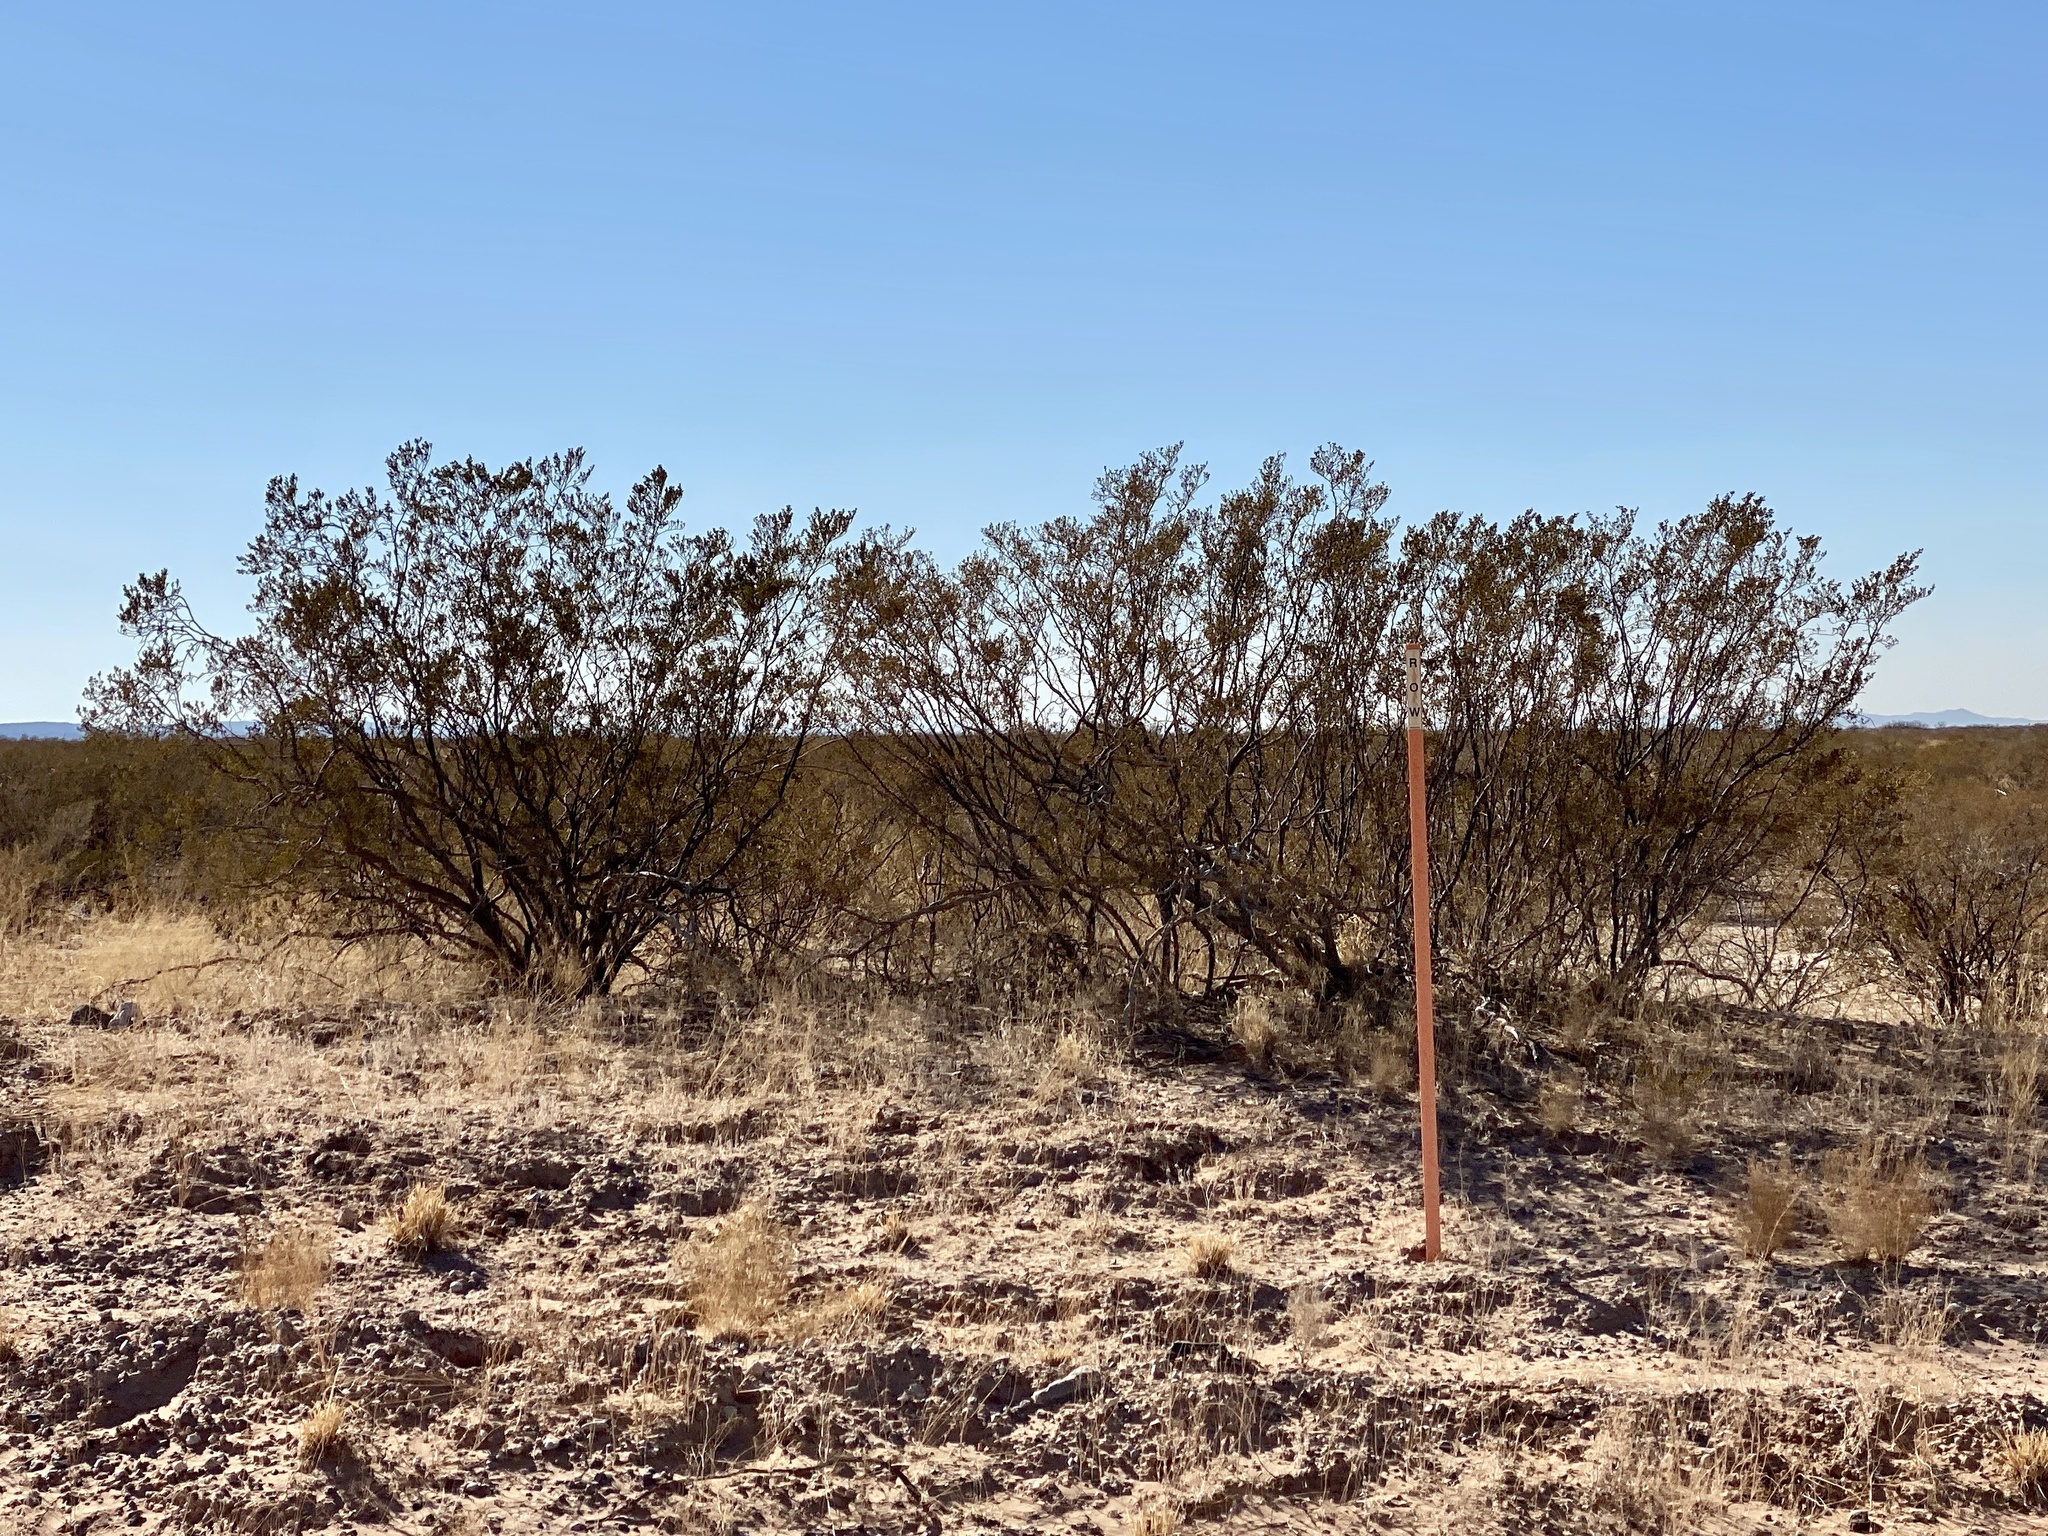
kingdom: Plantae
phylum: Tracheophyta
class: Magnoliopsida
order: Zygophyllales
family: Zygophyllaceae
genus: Larrea
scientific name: Larrea tridentata
